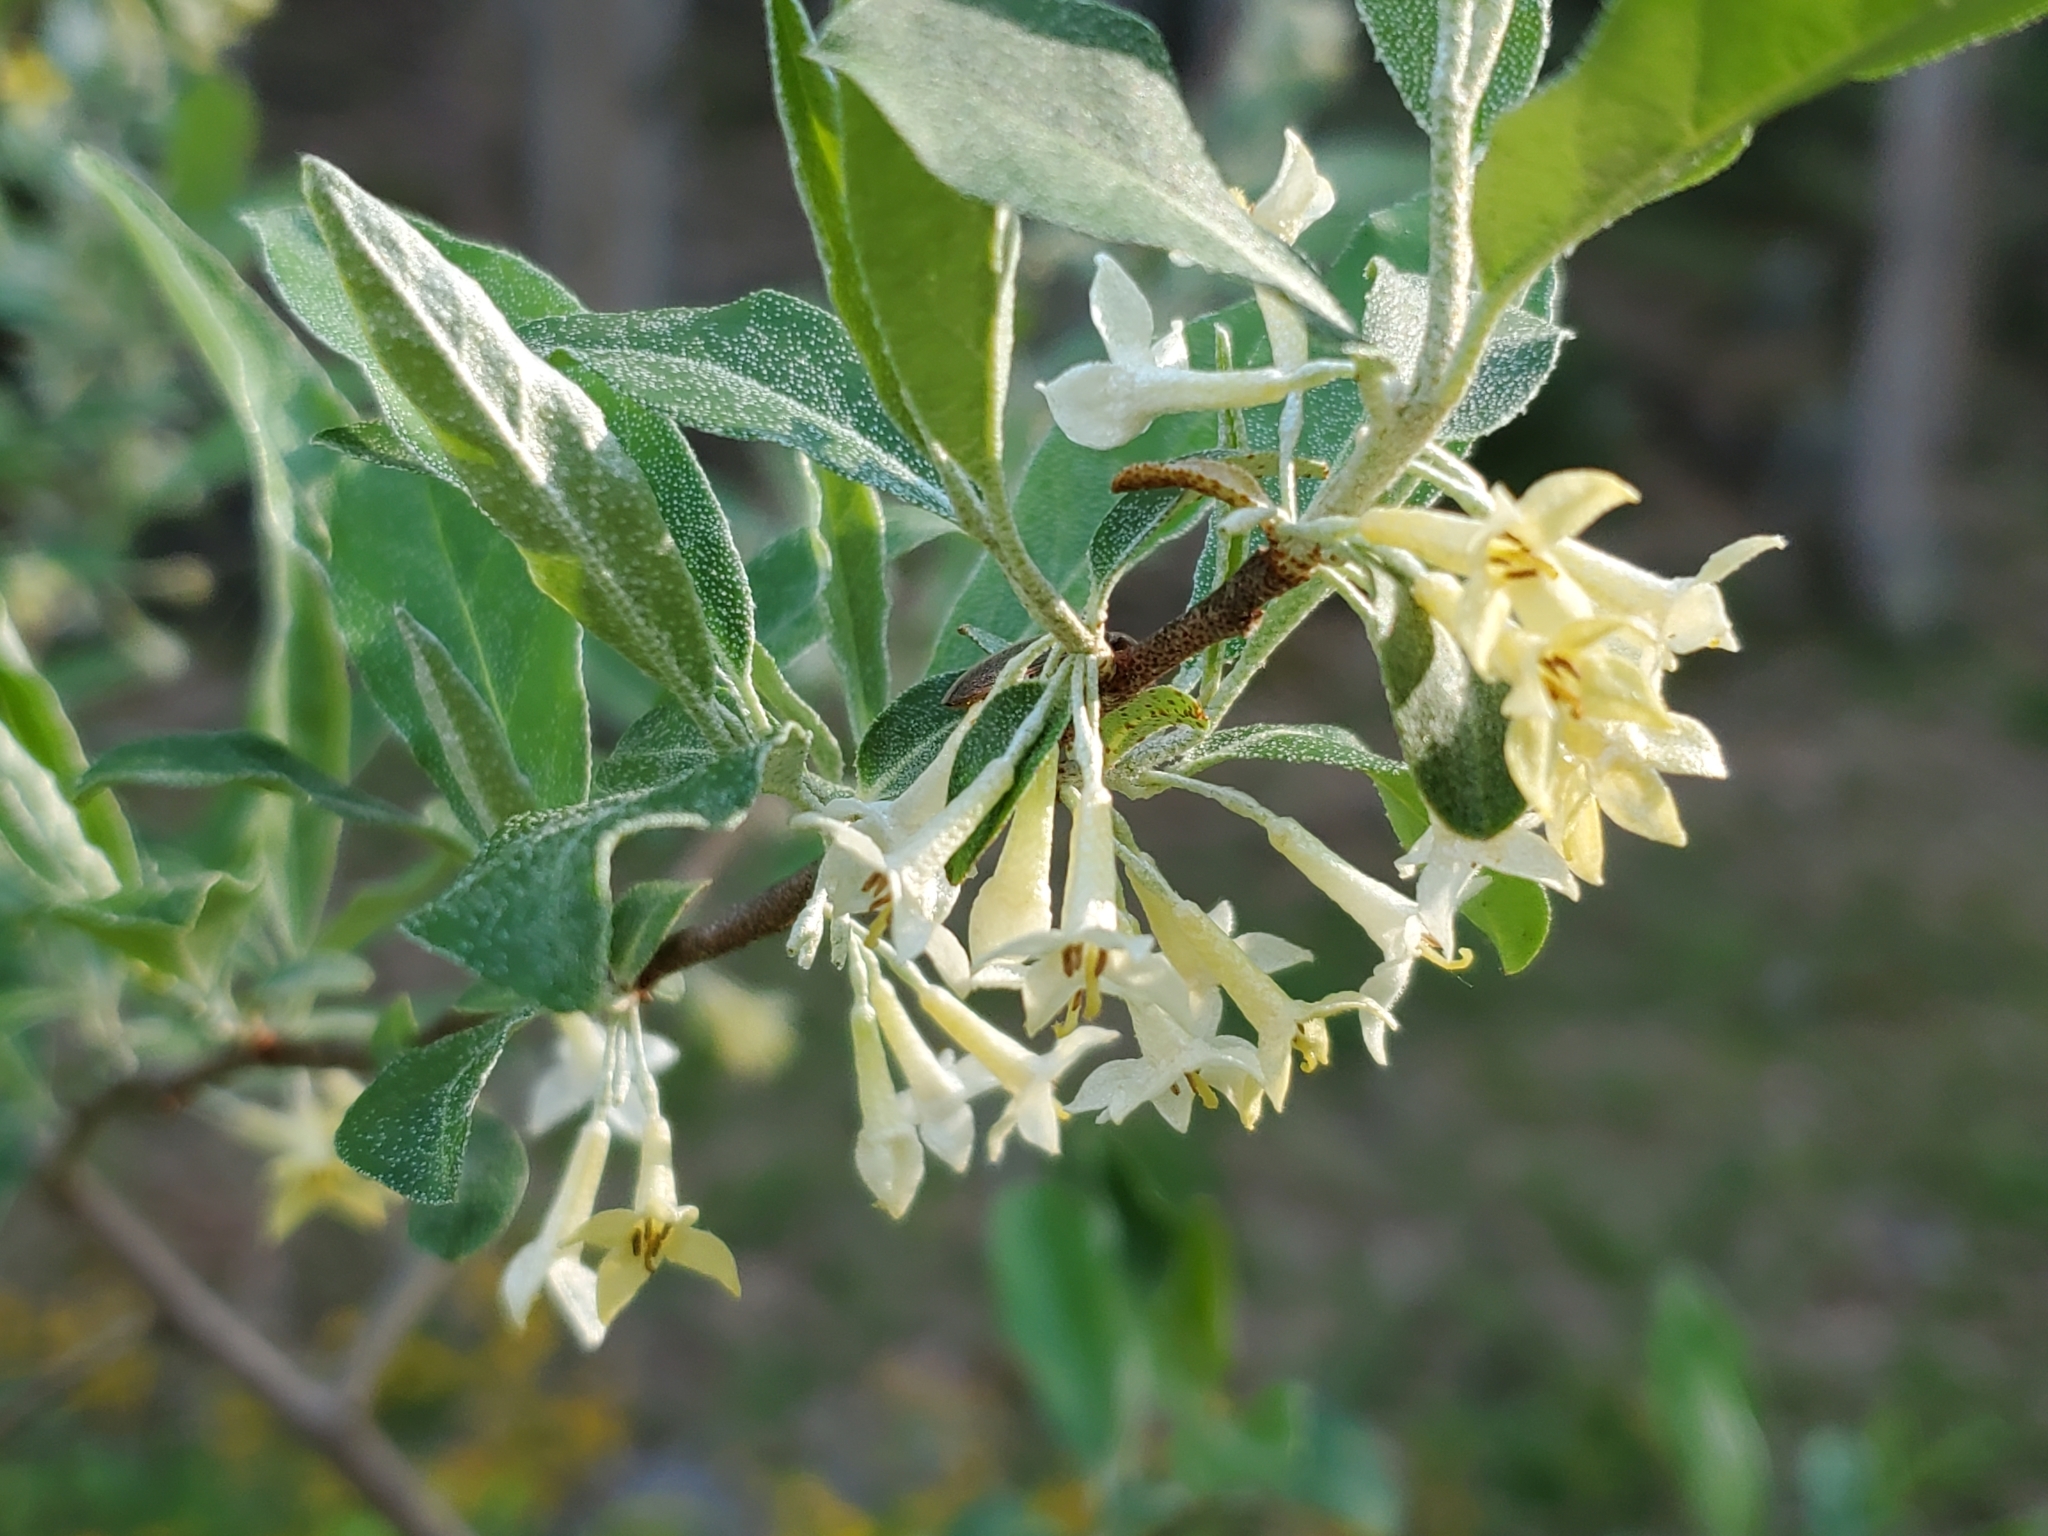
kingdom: Plantae
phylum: Tracheophyta
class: Magnoliopsida
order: Rosales
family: Elaeagnaceae
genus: Elaeagnus
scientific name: Elaeagnus umbellata
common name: Autumn olive
